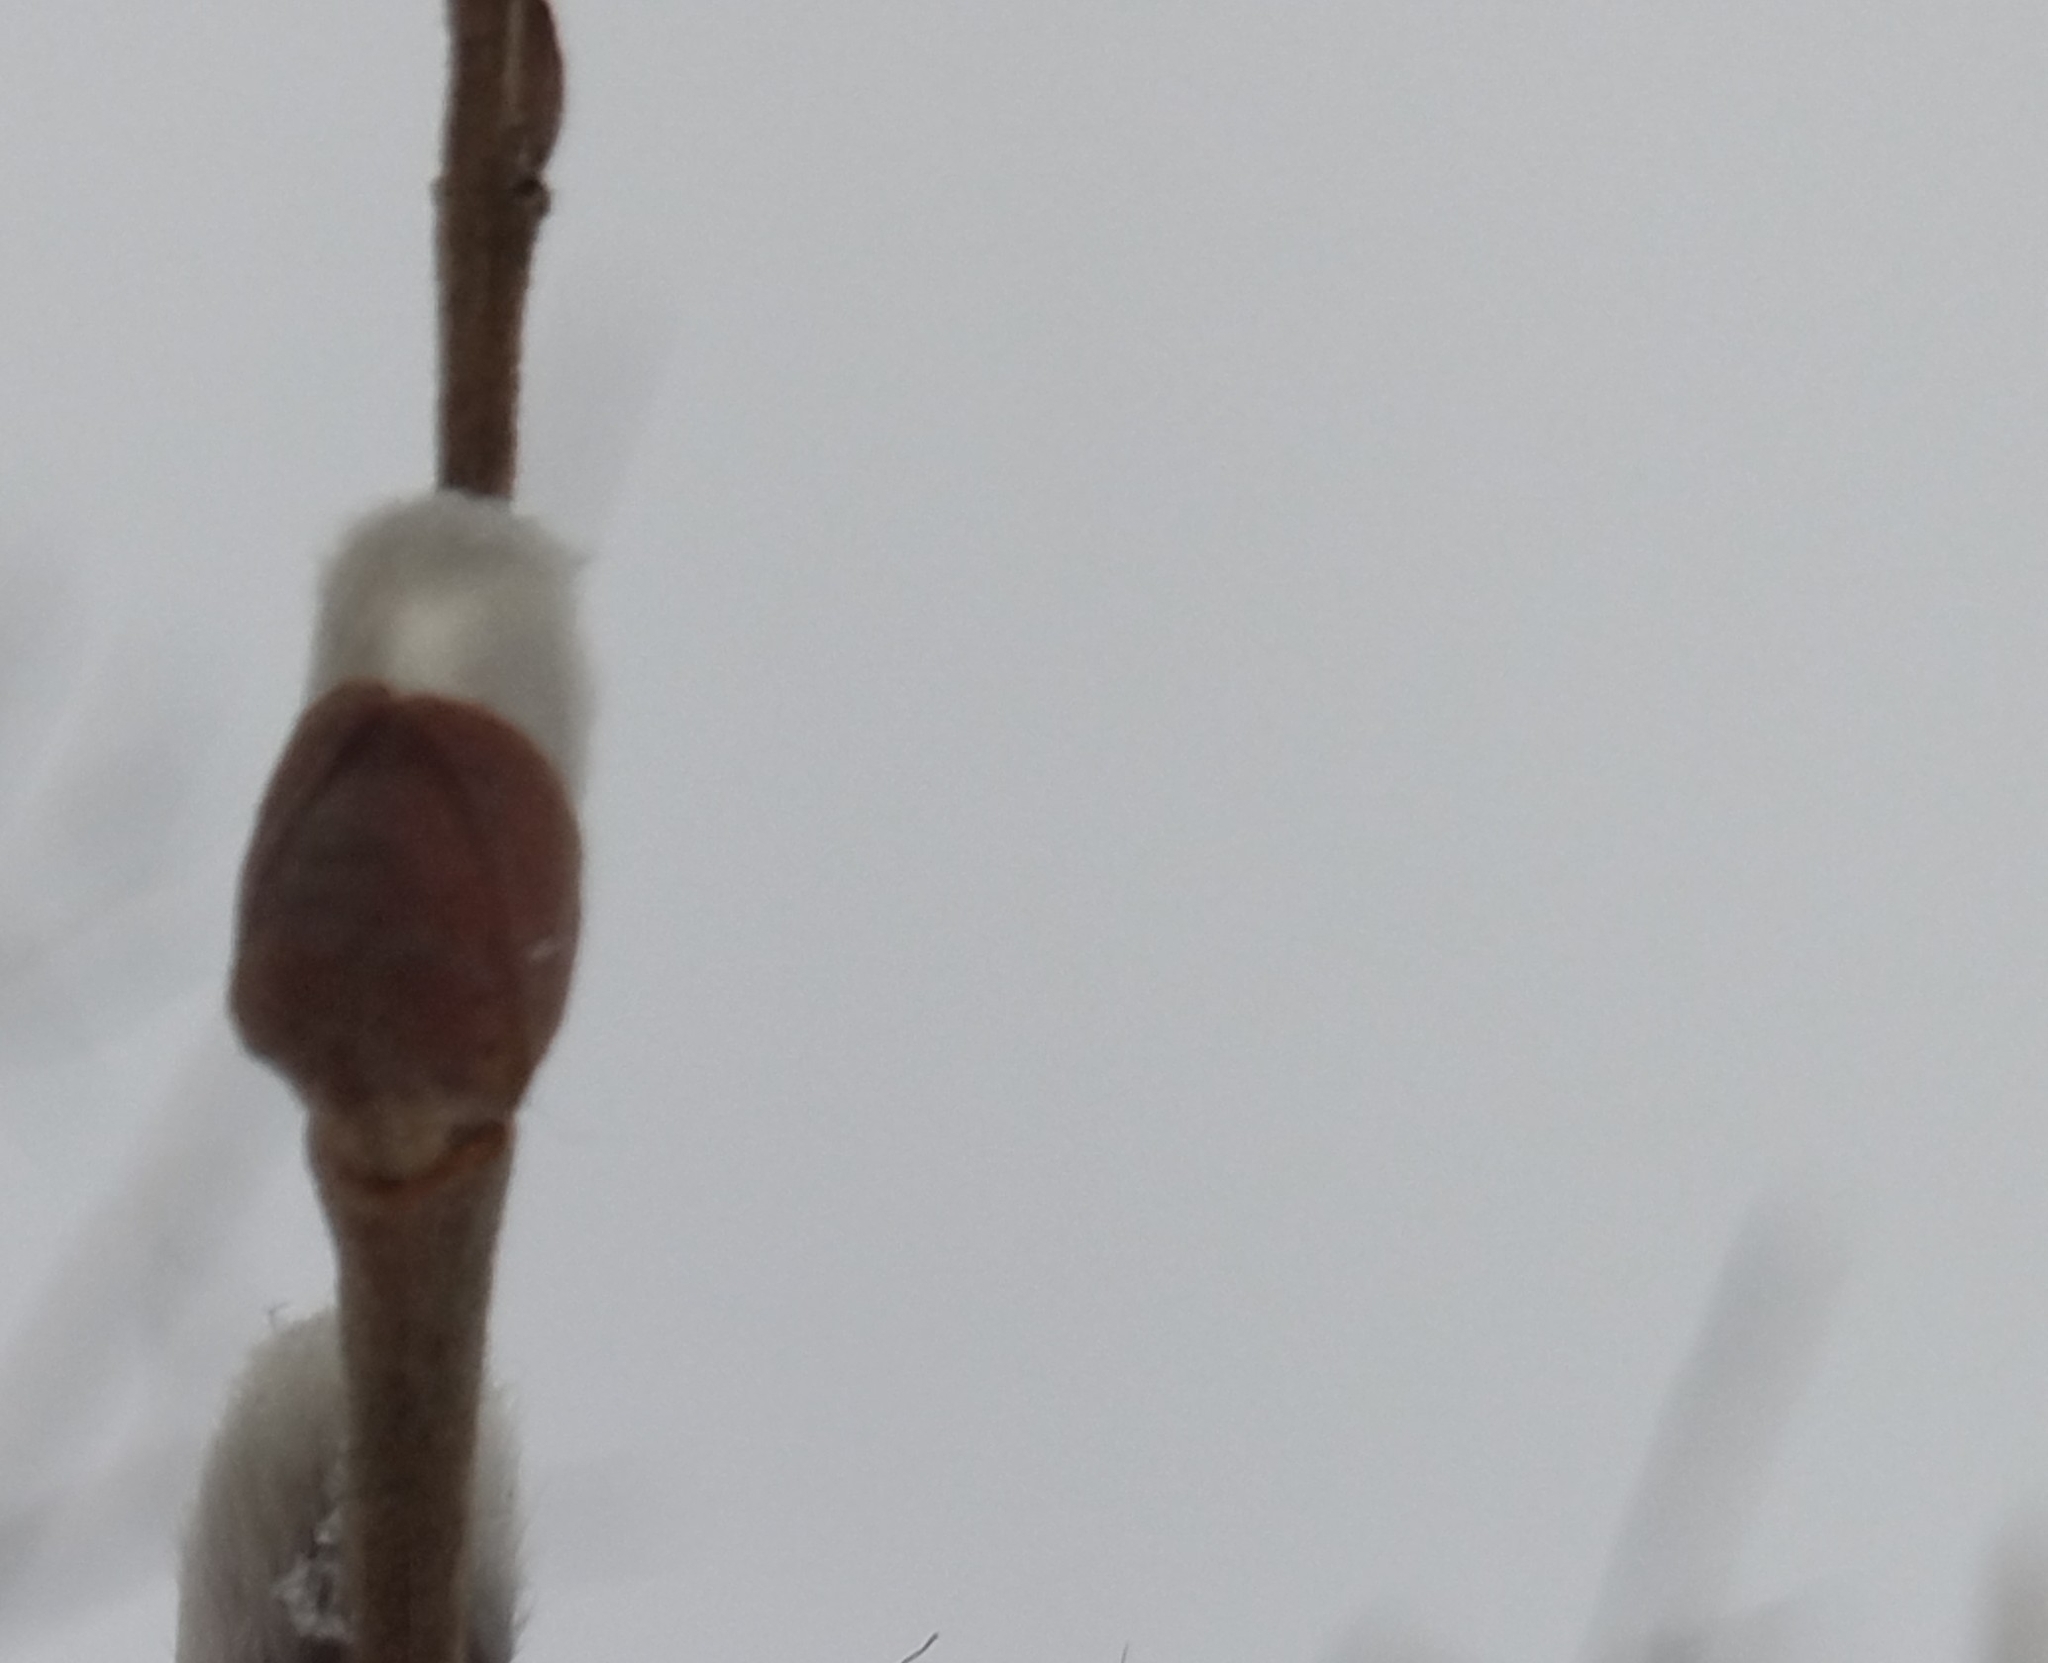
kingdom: Plantae
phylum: Tracheophyta
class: Magnoliopsida
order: Malpighiales
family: Salicaceae
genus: Salix
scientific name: Salix caprea
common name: Goat willow
